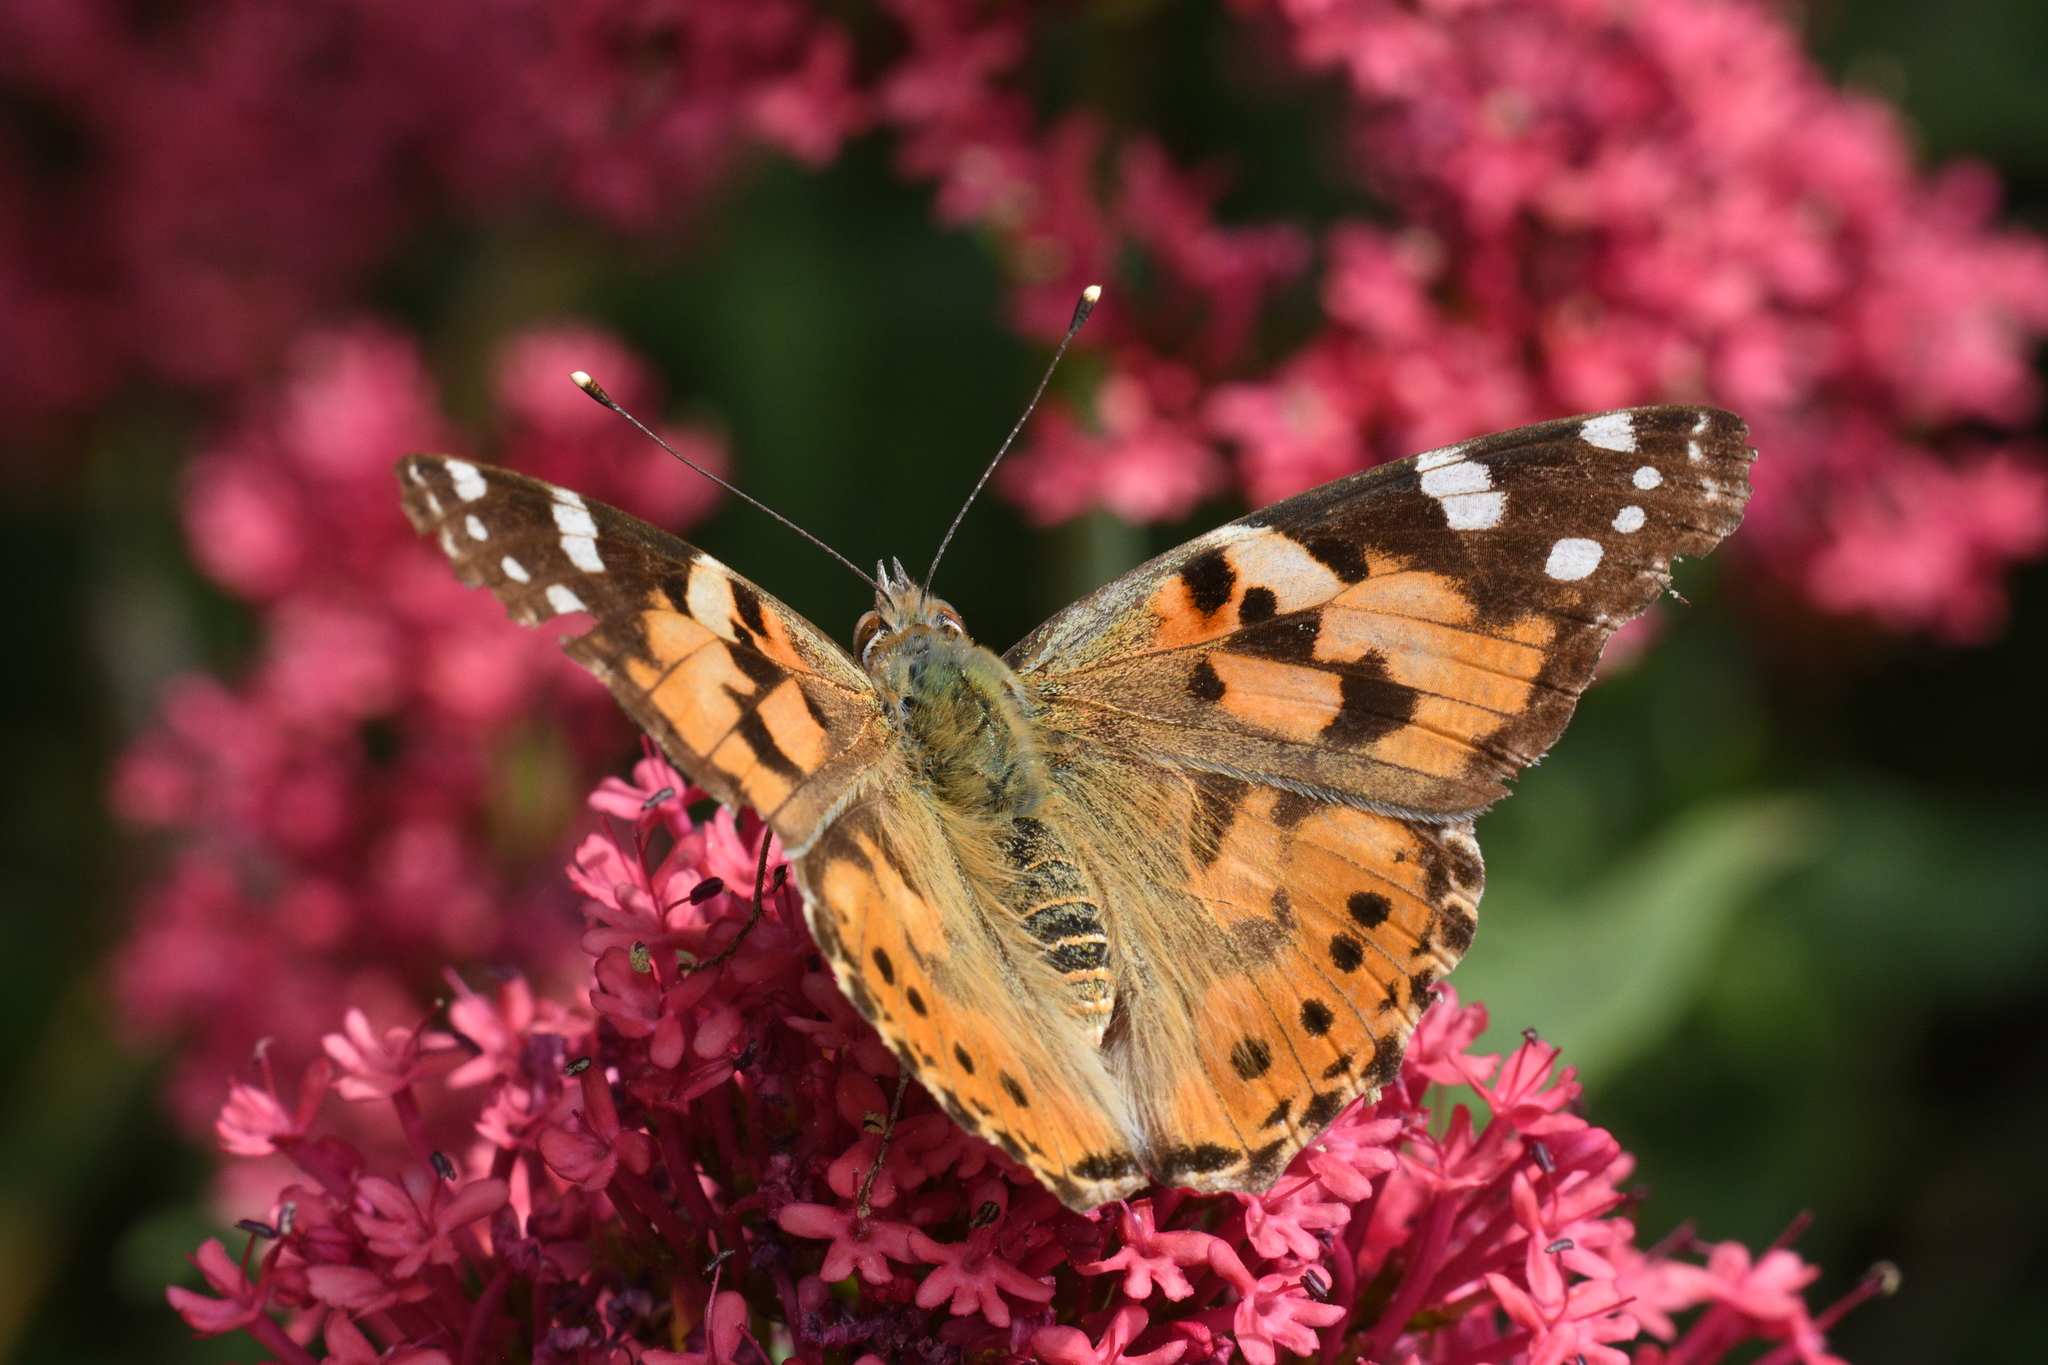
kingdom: Animalia
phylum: Arthropoda
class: Insecta
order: Lepidoptera
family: Nymphalidae
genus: Vanessa
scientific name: Vanessa cardui
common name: Painted lady
